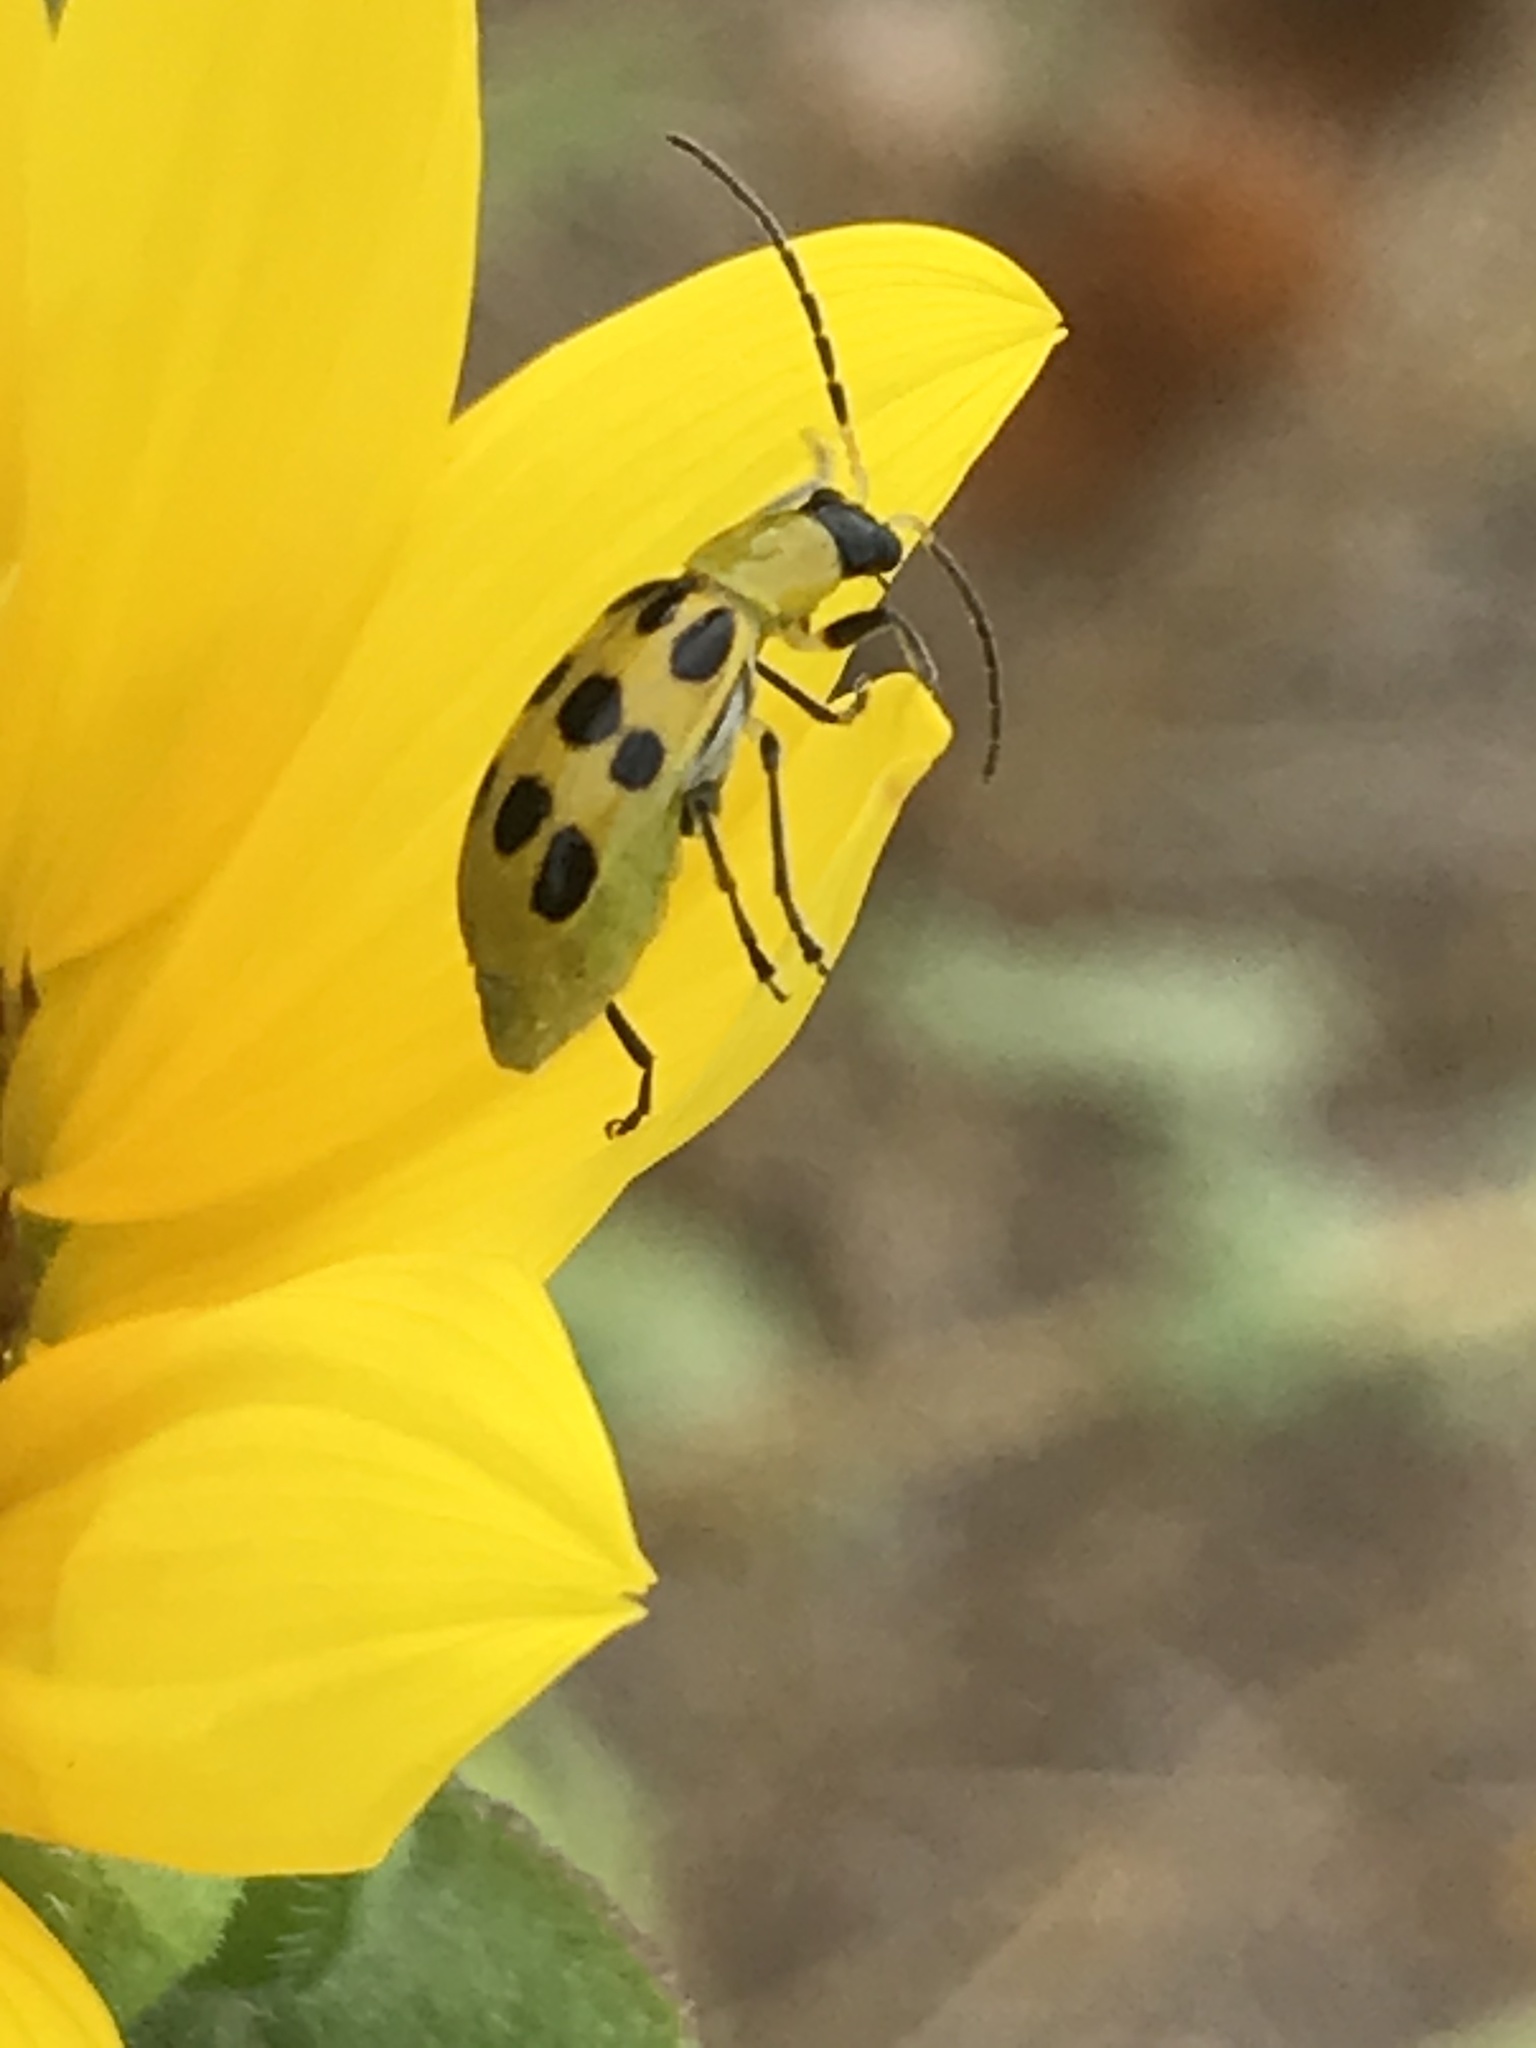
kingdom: Animalia
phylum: Arthropoda
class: Insecta
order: Coleoptera
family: Chrysomelidae
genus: Diabrotica
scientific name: Diabrotica undecimpunctata
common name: Spotted cucumber beetle
